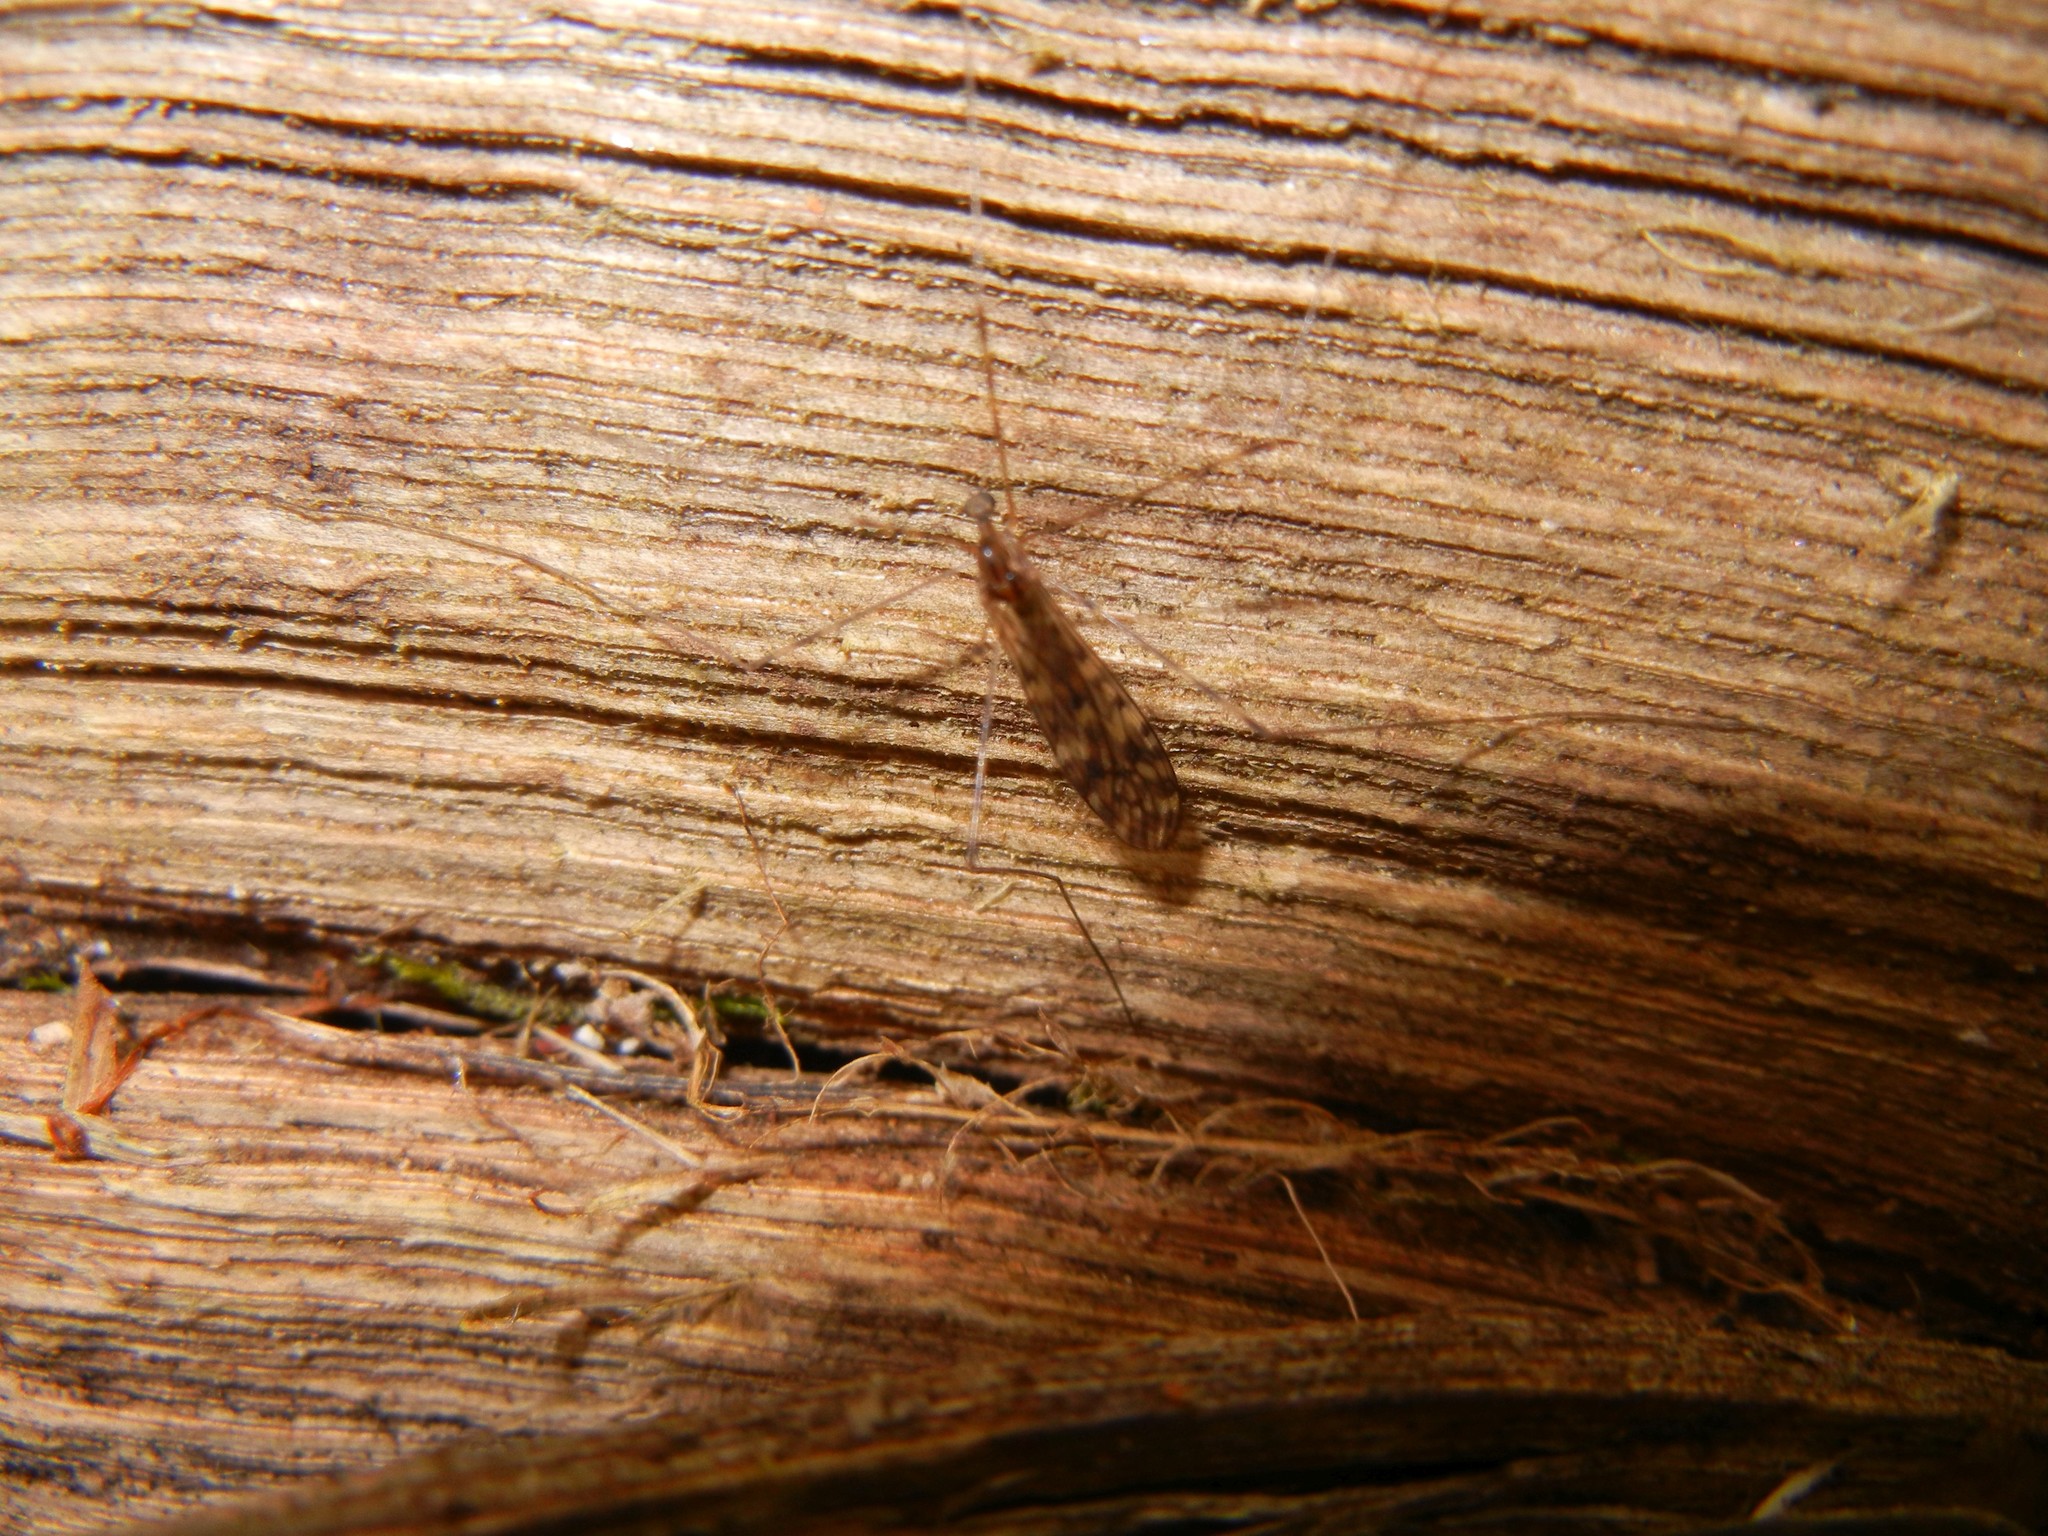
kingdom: Animalia
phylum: Arthropoda
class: Insecta
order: Diptera
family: Limoniidae
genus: Limonia
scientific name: Limonia nubeculosa
